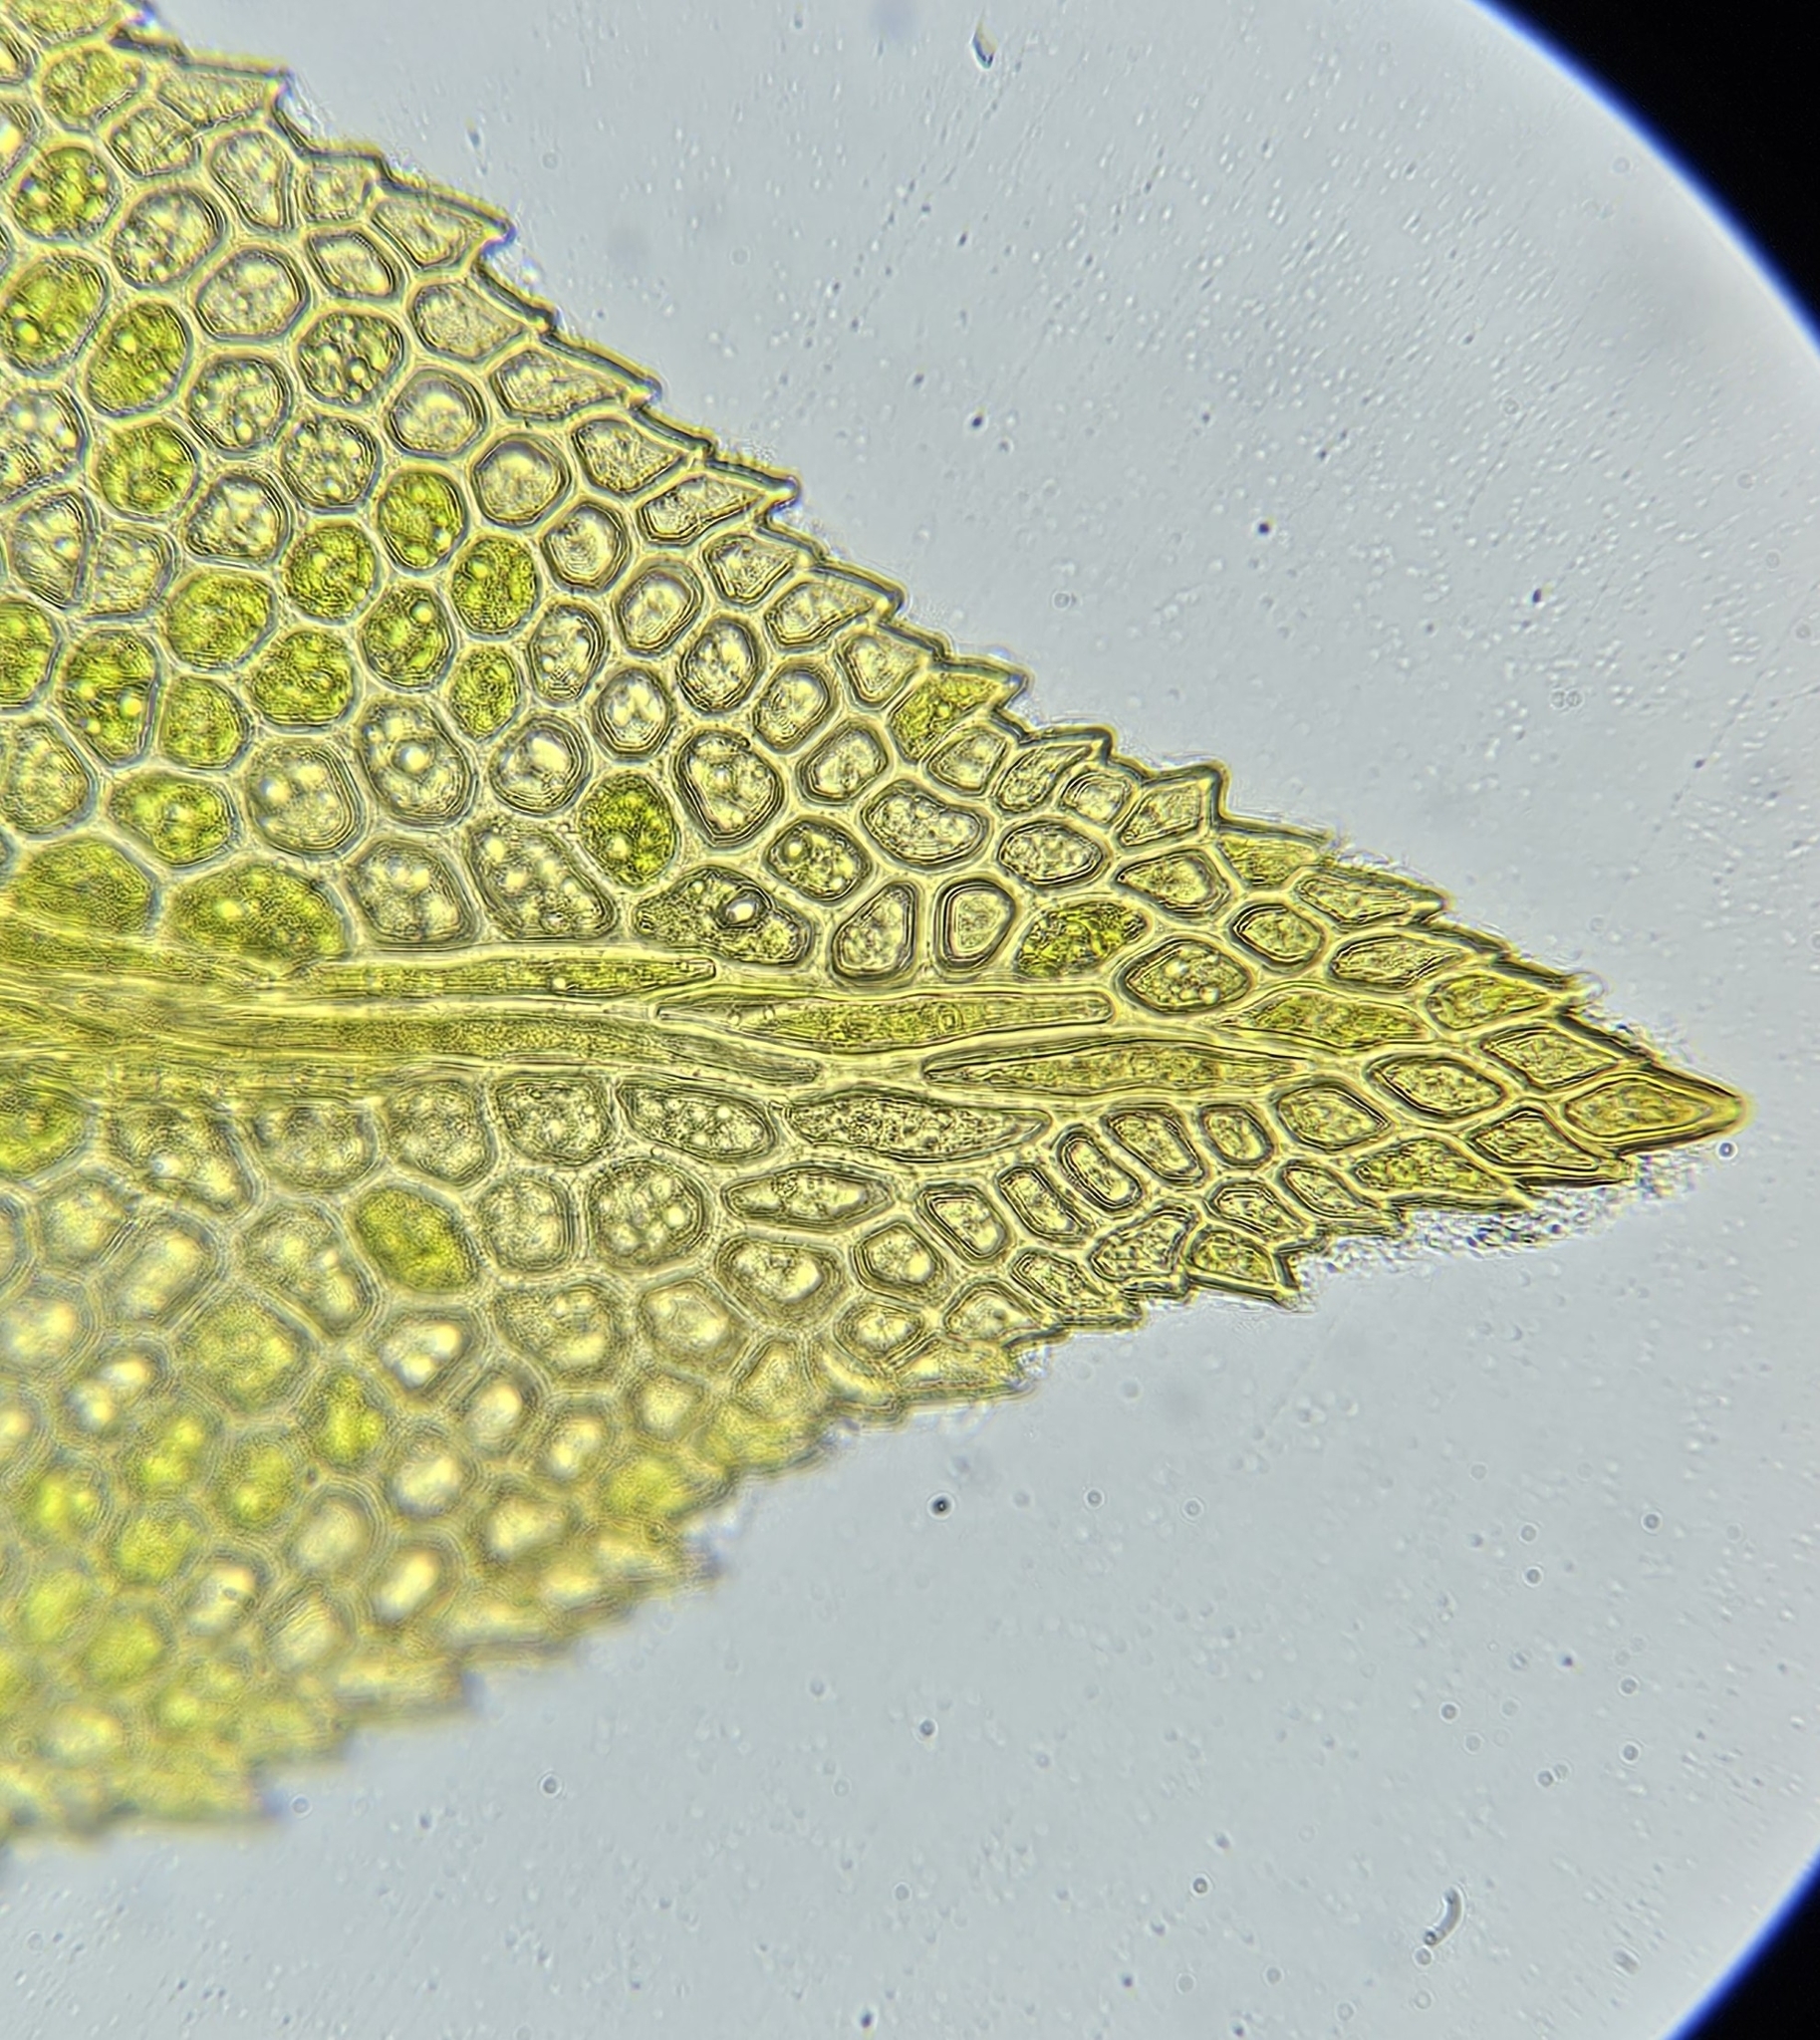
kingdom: Plantae
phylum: Bryophyta
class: Bryopsida
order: Dicranales
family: Fissidentaceae
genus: Fissidens
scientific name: Fissidens adianthoides
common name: Maidenhair pocket moss
